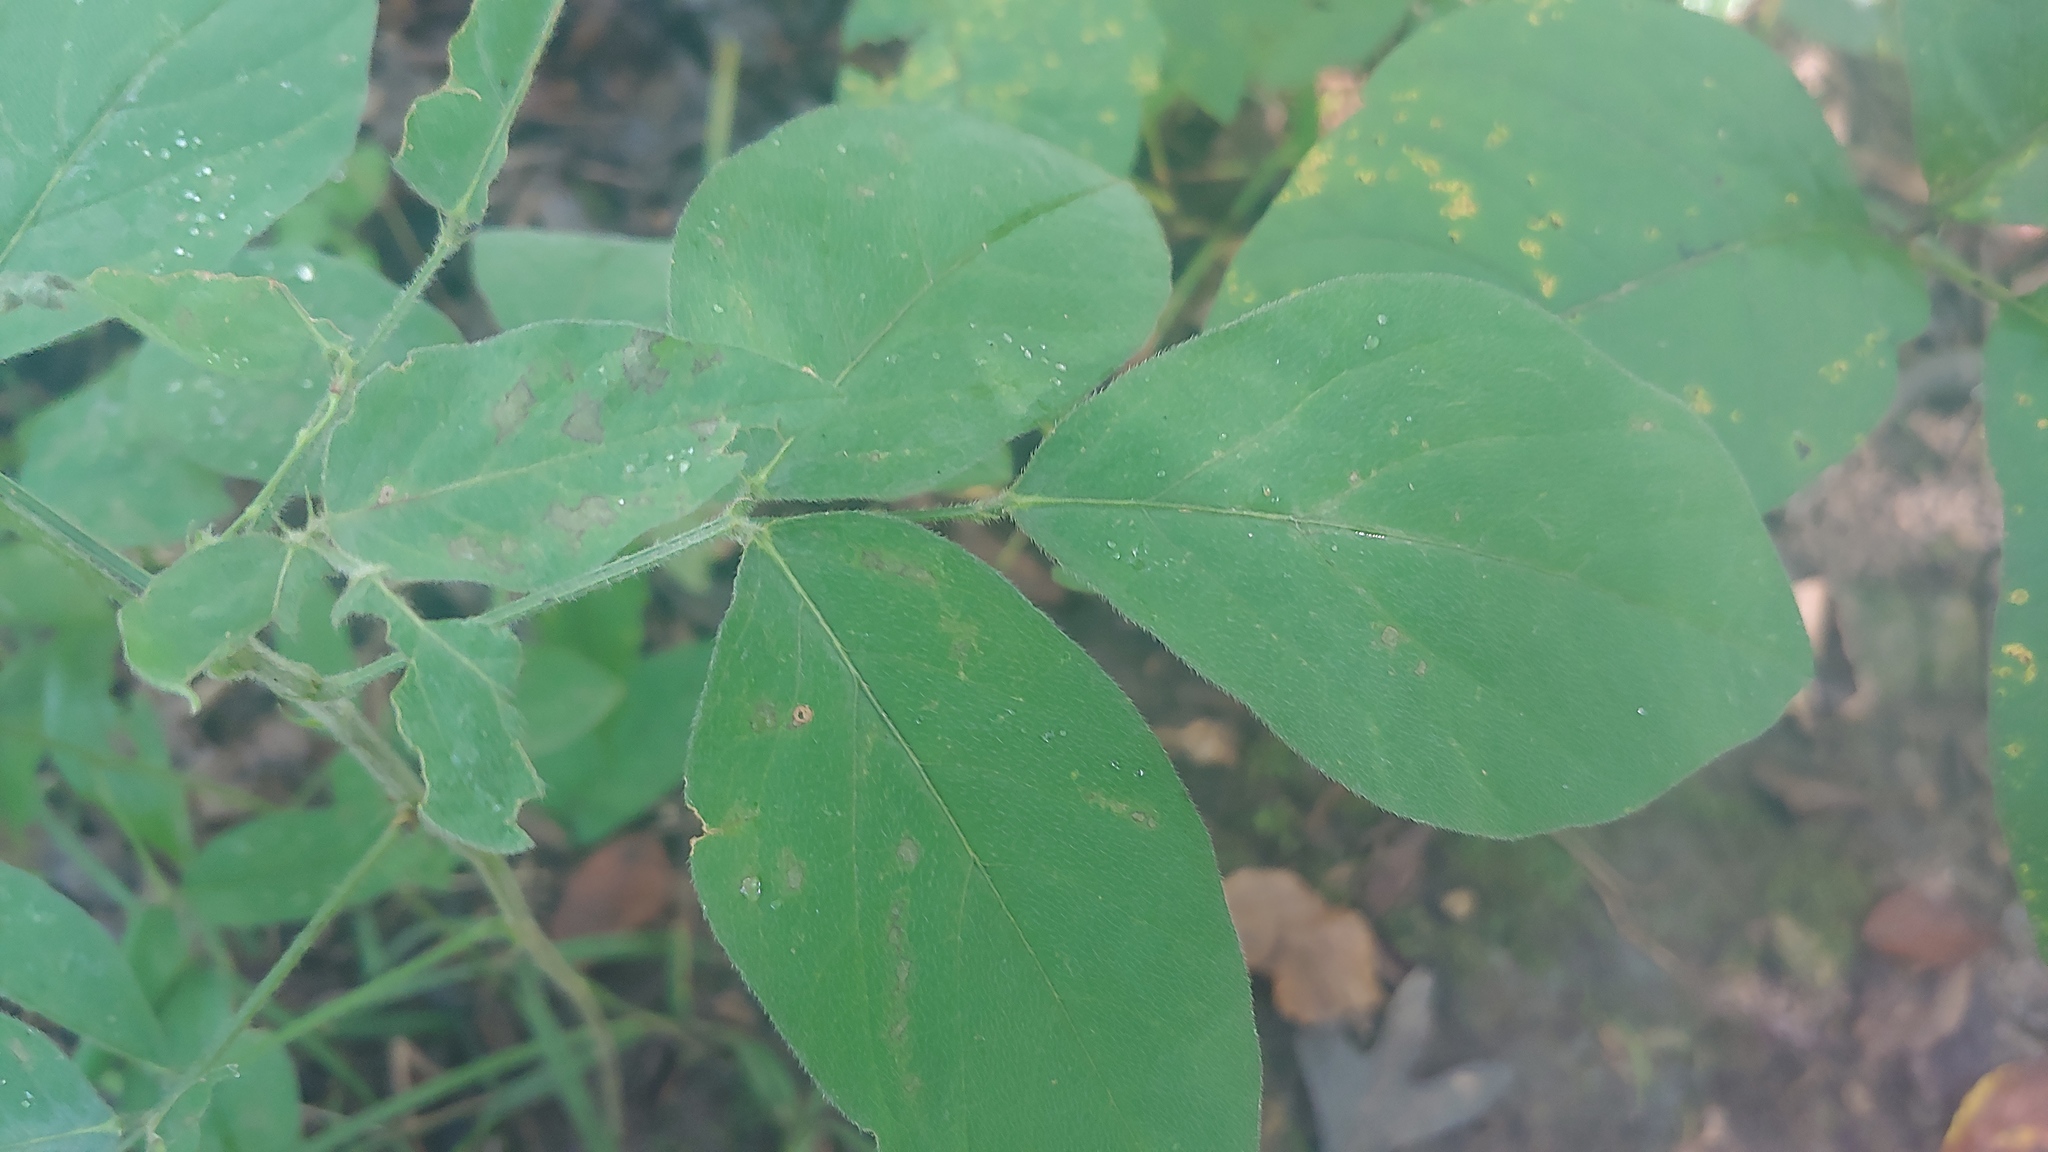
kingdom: Plantae
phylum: Tracheophyta
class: Magnoliopsida
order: Fabales
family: Fabaceae
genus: Hylodesmum
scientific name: Hylodesmum nudiflorum
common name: Bare-stemmed tick-trefoil
